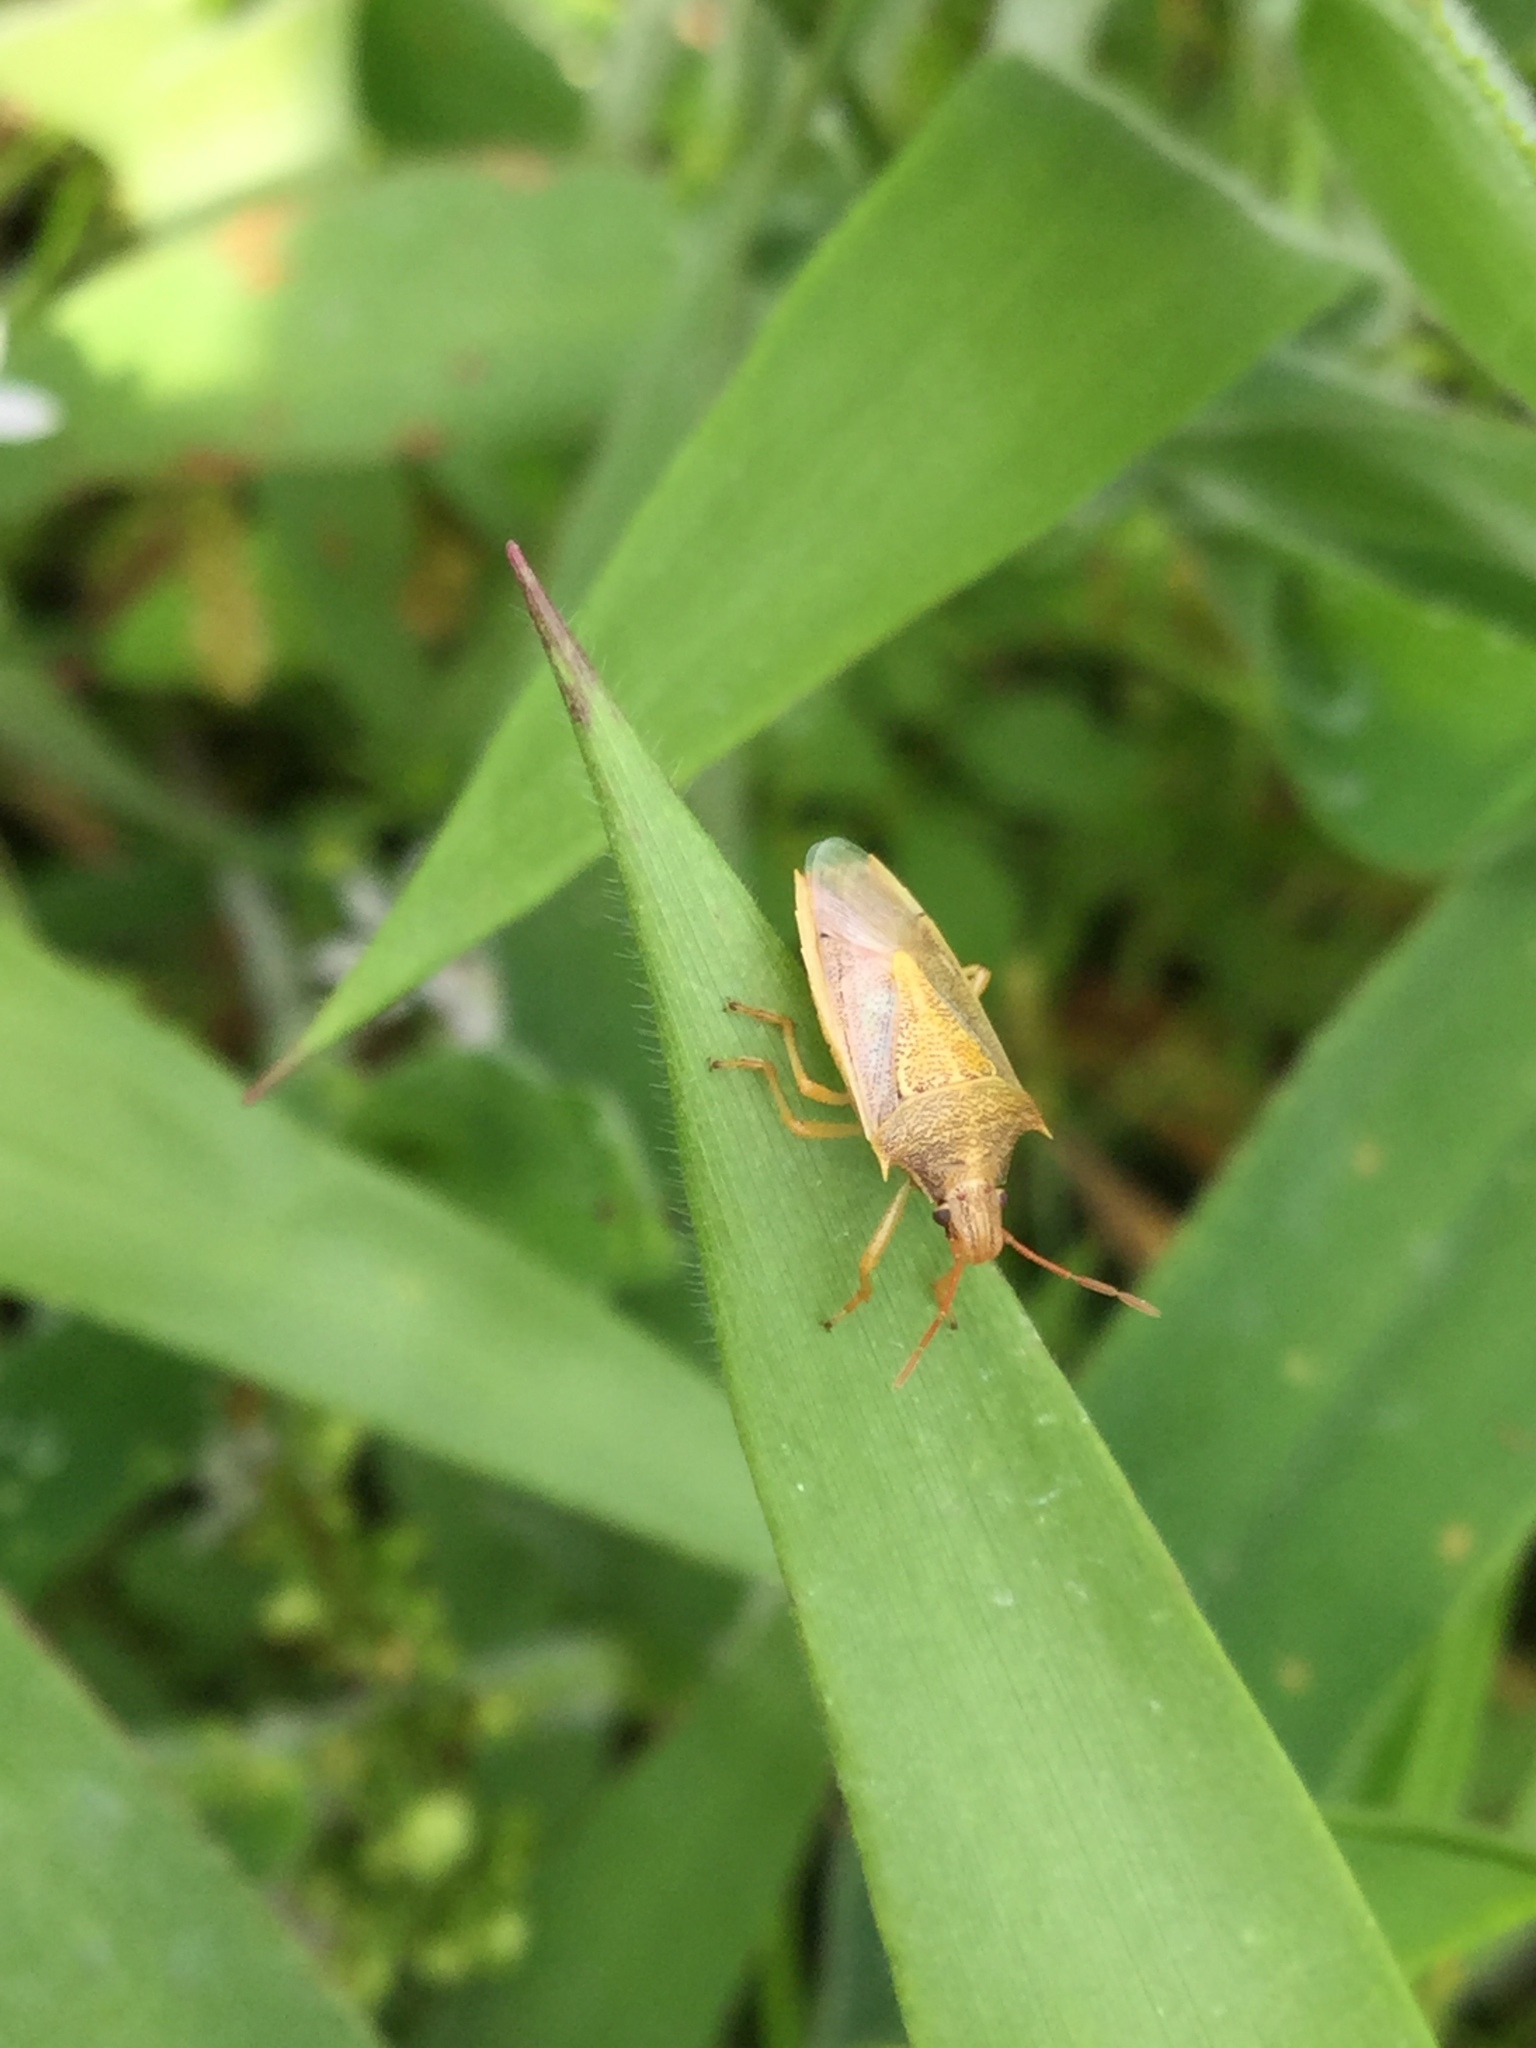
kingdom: Animalia
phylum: Arthropoda
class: Insecta
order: Hemiptera
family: Pentatomidae
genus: Oebalus
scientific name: Oebalus pugnax
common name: Rice stink bug
